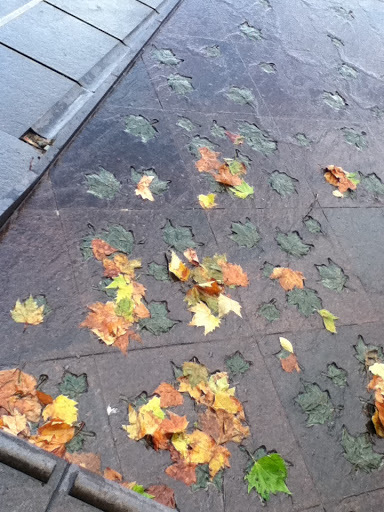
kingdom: Plantae
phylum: Tracheophyta
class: Magnoliopsida
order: Sapindales
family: Sapindaceae
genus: Acer
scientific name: Acer campestre
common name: Field maple
